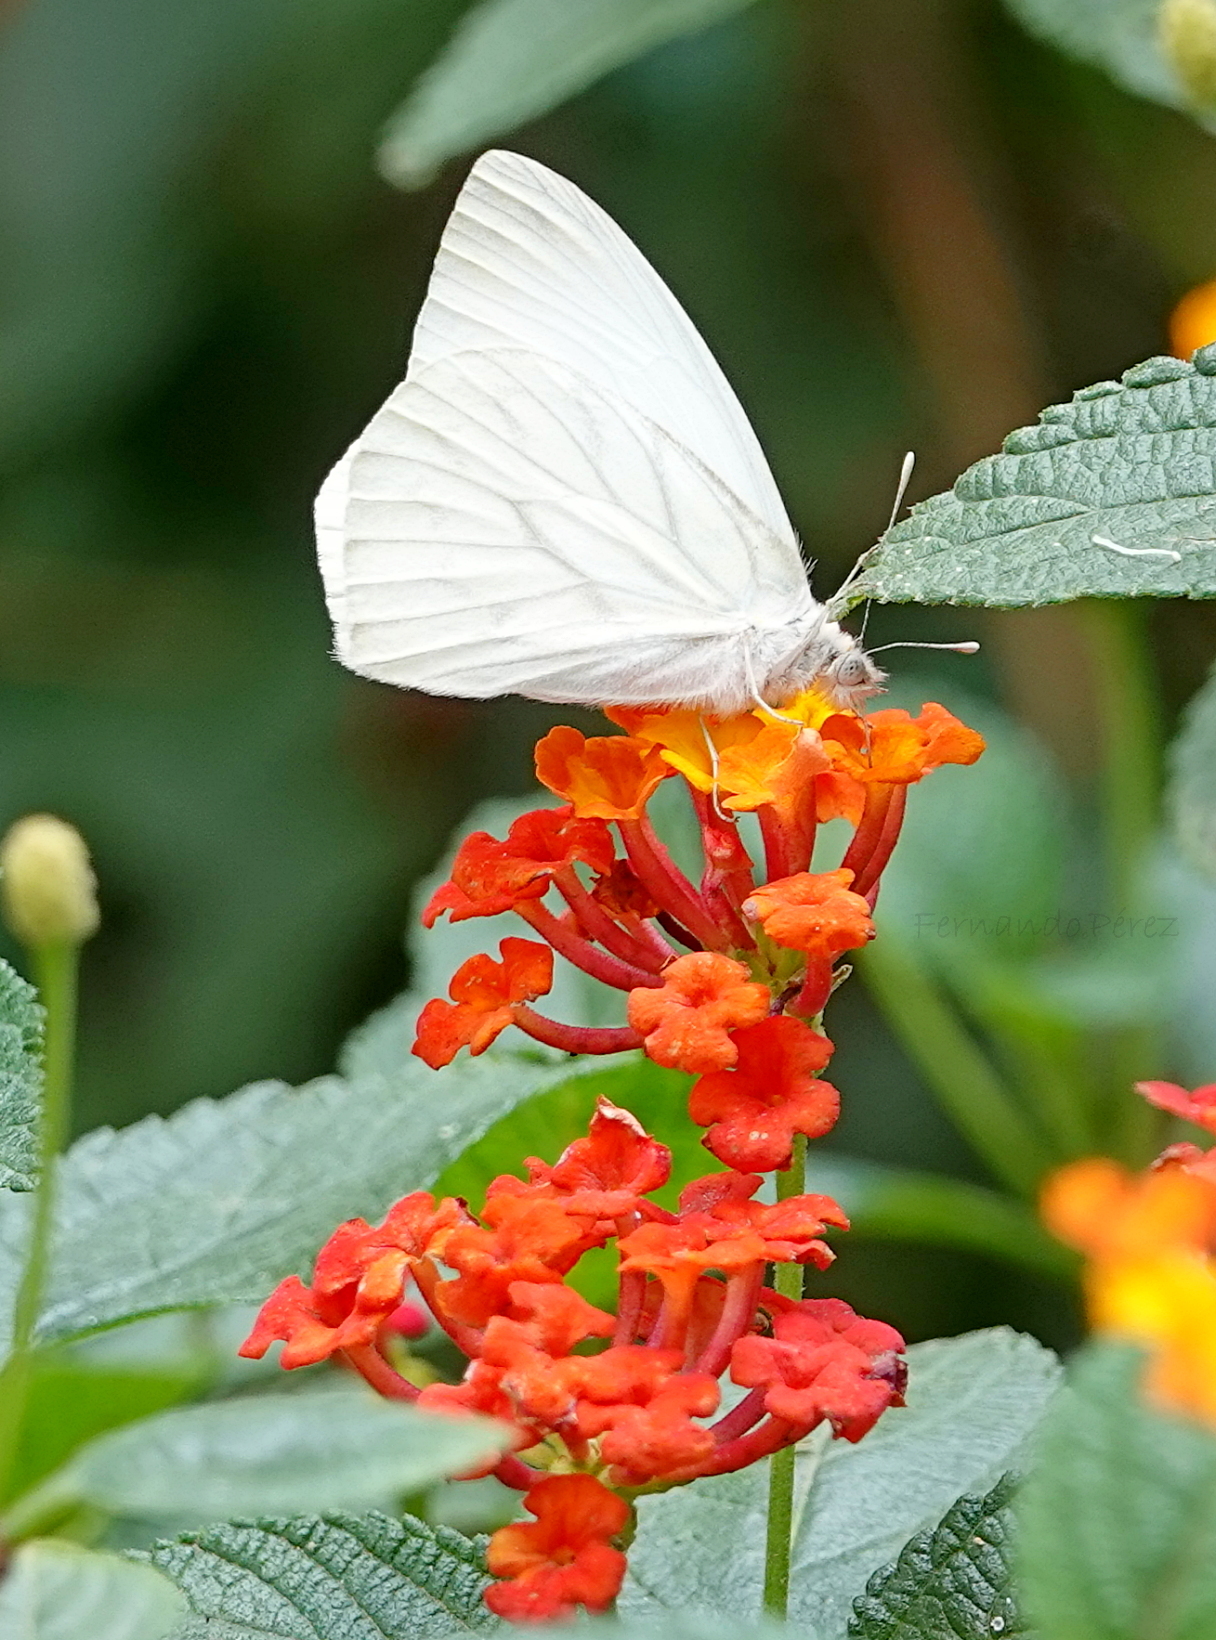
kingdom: Animalia
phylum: Arthropoda
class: Insecta
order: Lepidoptera
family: Pieridae
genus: Hesperocharis
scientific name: Hesperocharis costaricensis
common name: Pallid tilewhite
